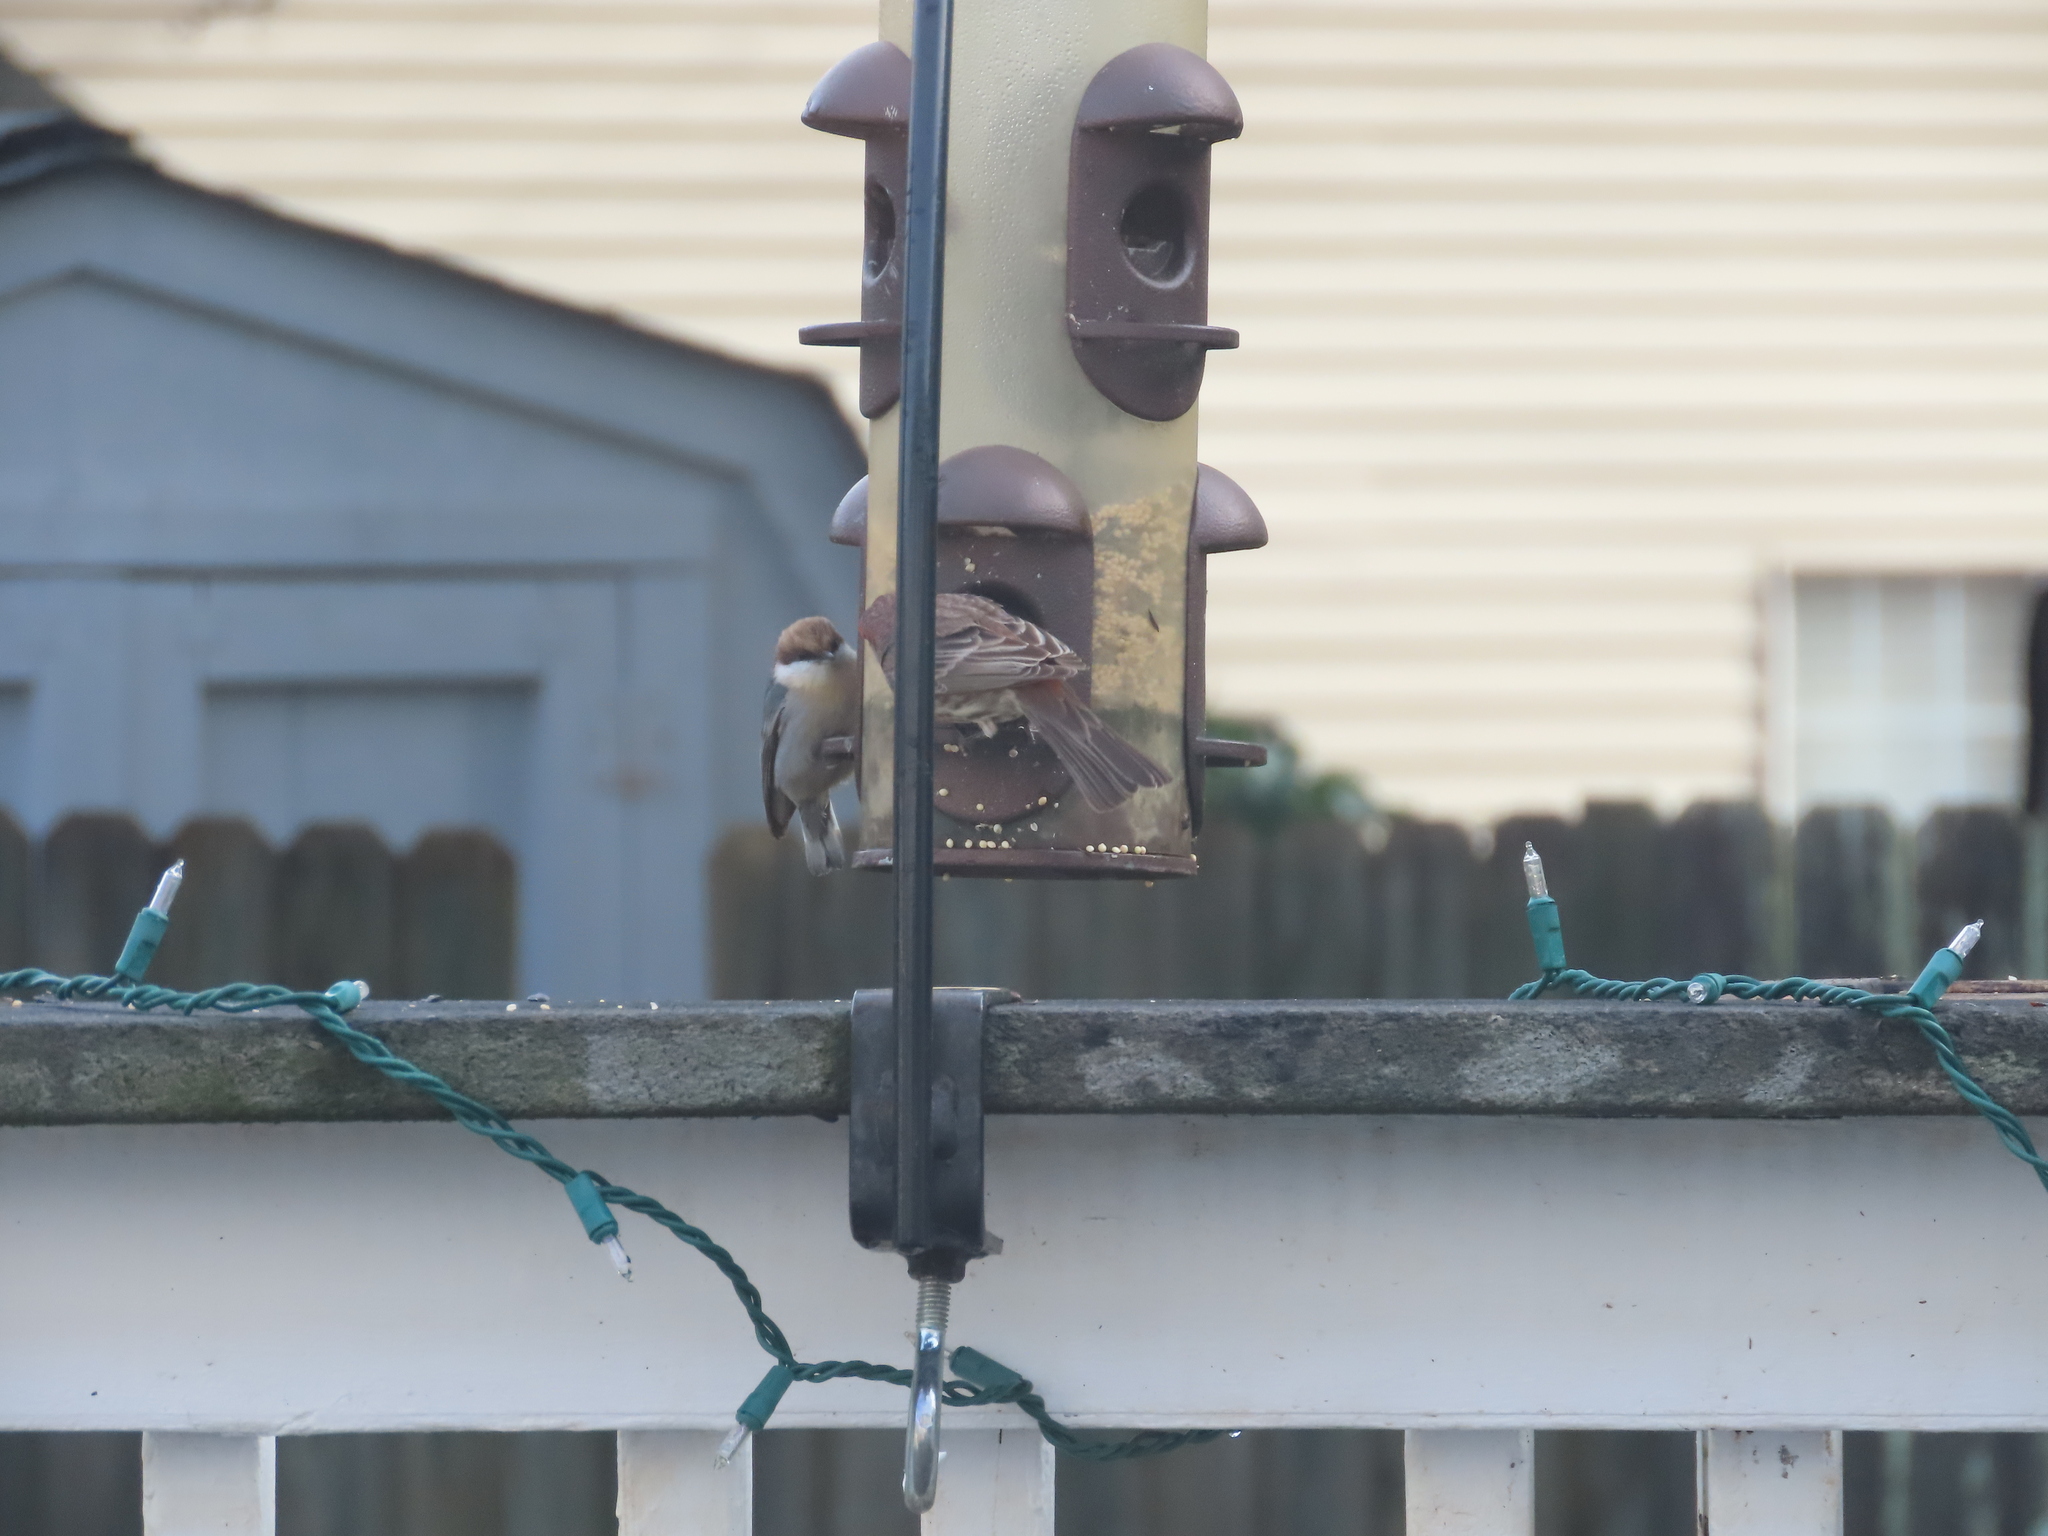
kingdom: Animalia
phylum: Chordata
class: Aves
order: Passeriformes
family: Sittidae
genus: Sitta
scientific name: Sitta pusilla
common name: Brown-headed nuthatch
